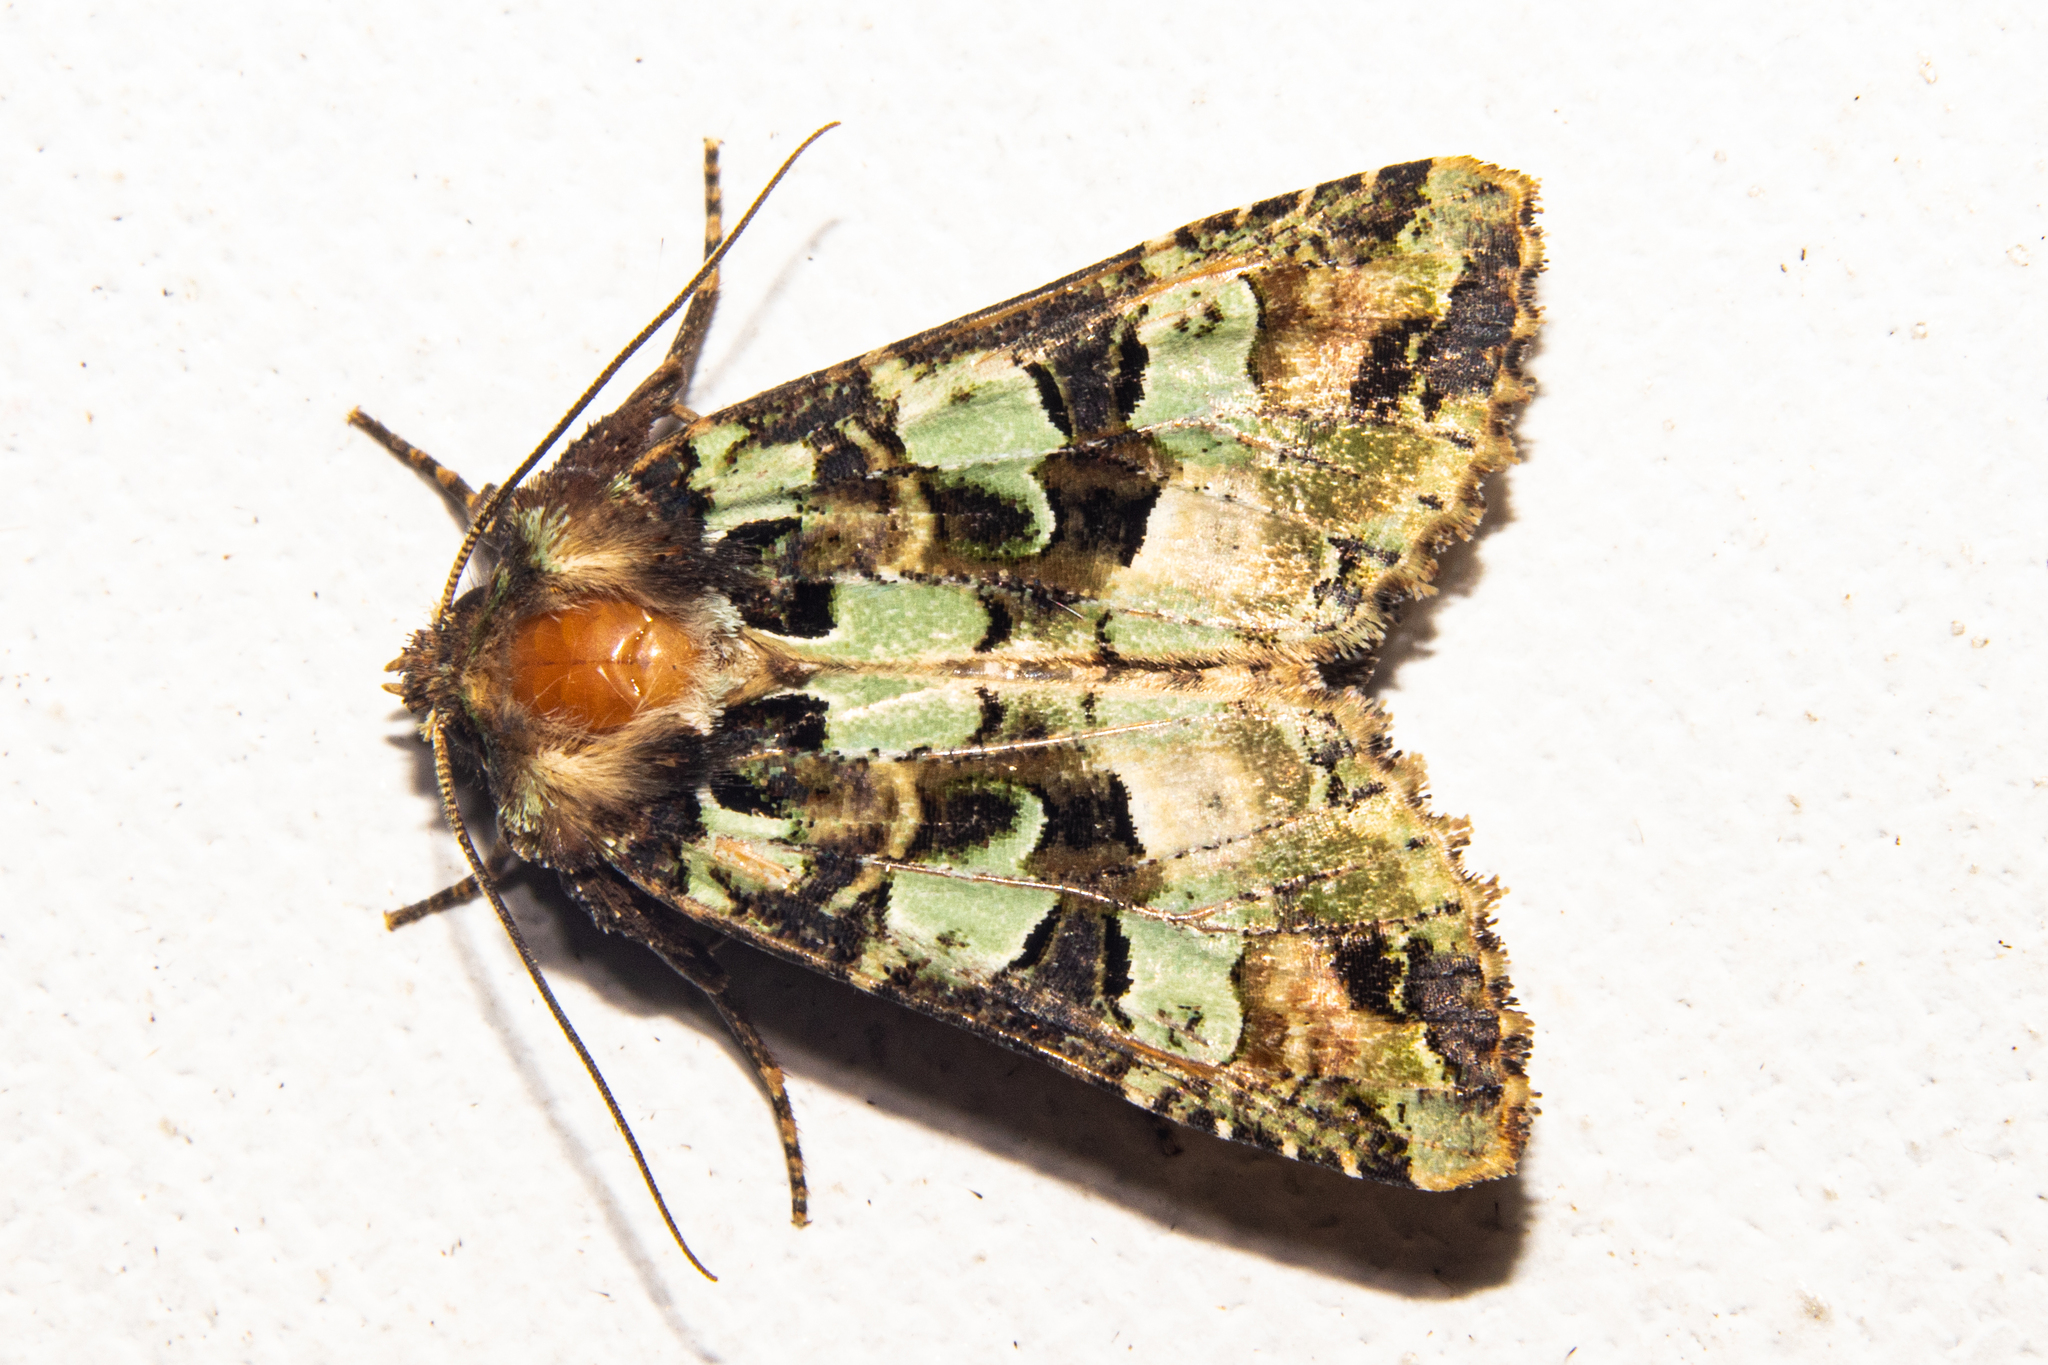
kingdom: Animalia
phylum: Arthropoda
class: Insecta
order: Lepidoptera
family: Noctuidae
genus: Meterana
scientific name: Meterana pauca
